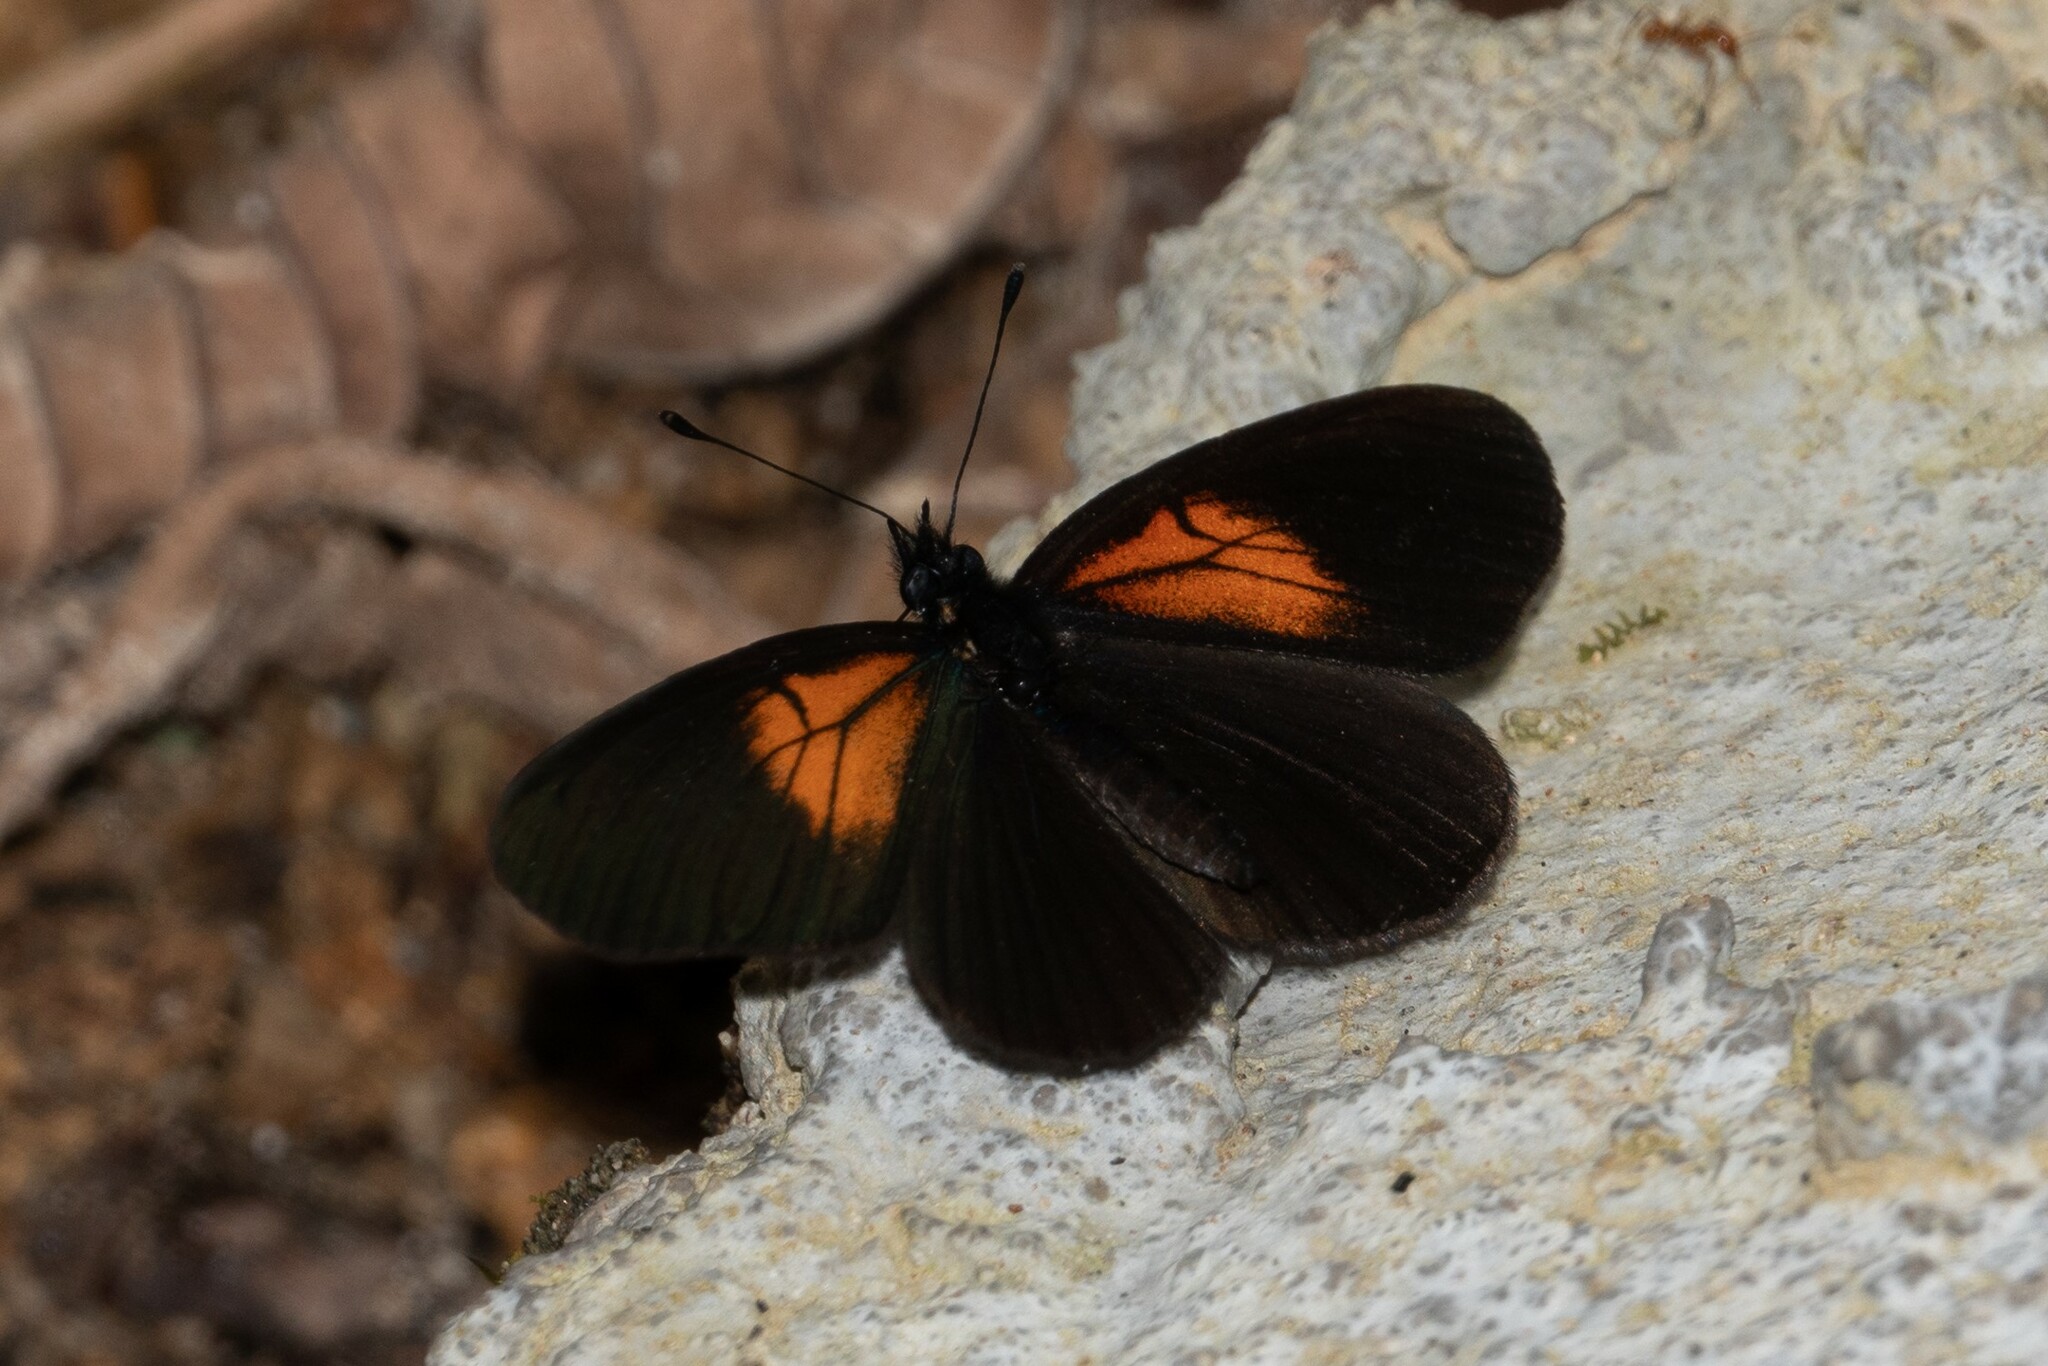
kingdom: Animalia
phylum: Arthropoda
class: Insecta
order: Lepidoptera
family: Nymphalidae
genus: Castilia
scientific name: Castilia neria
